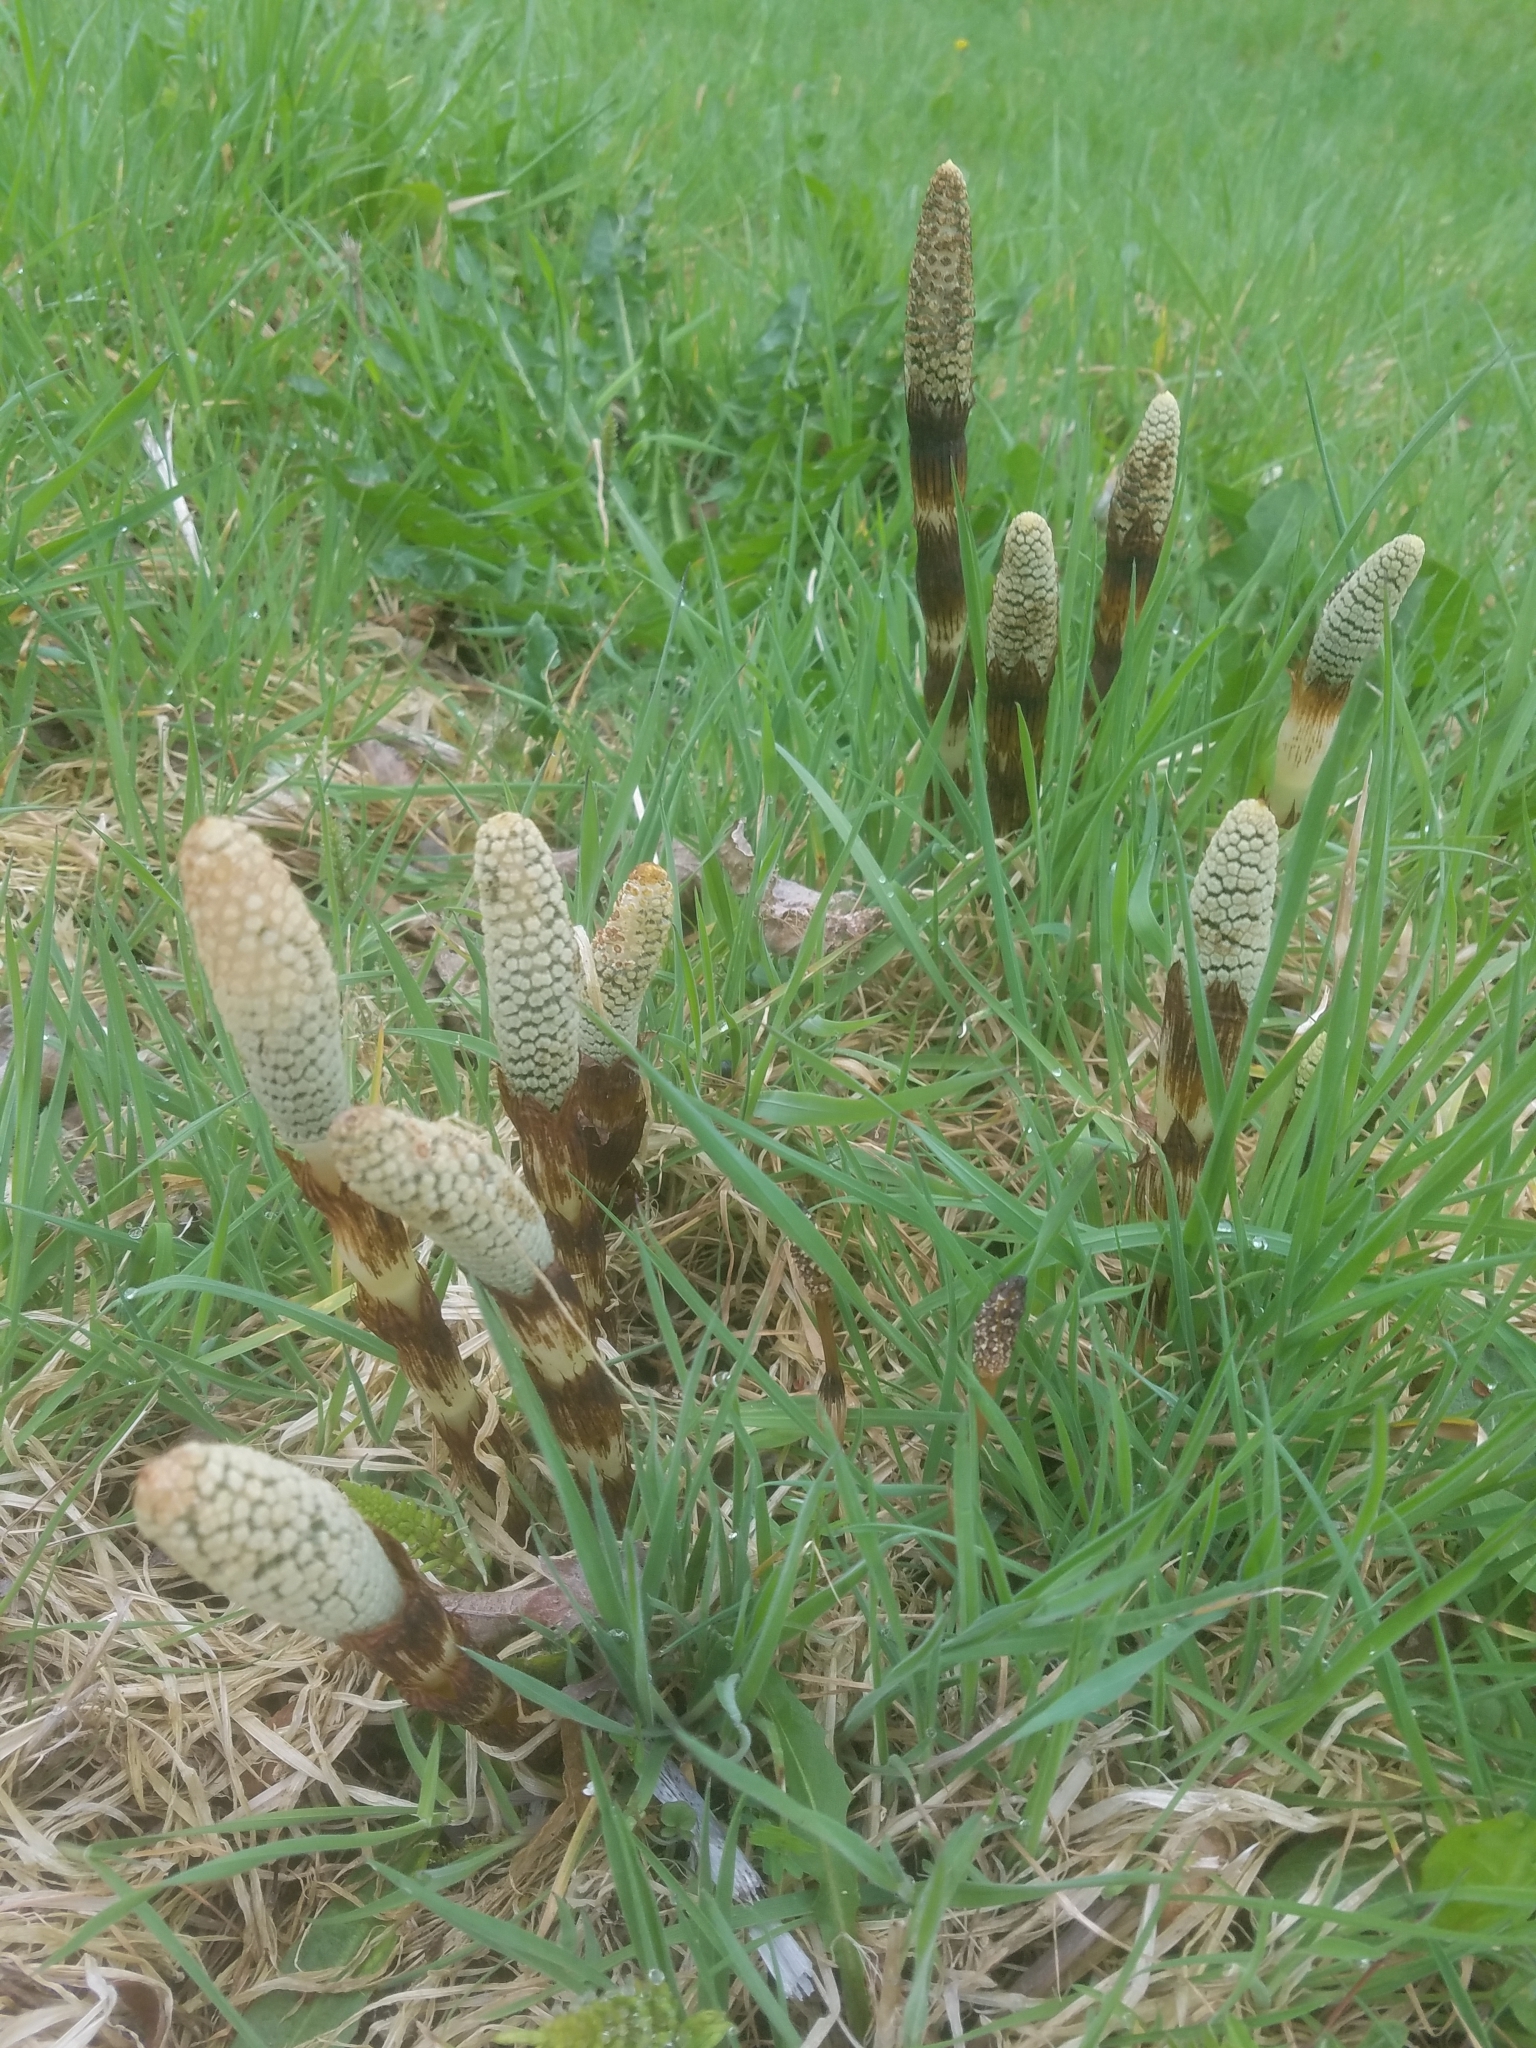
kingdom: Plantae
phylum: Tracheophyta
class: Polypodiopsida
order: Equisetales
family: Equisetaceae
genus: Equisetum
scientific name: Equisetum braunii
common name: Braun's horsetail
